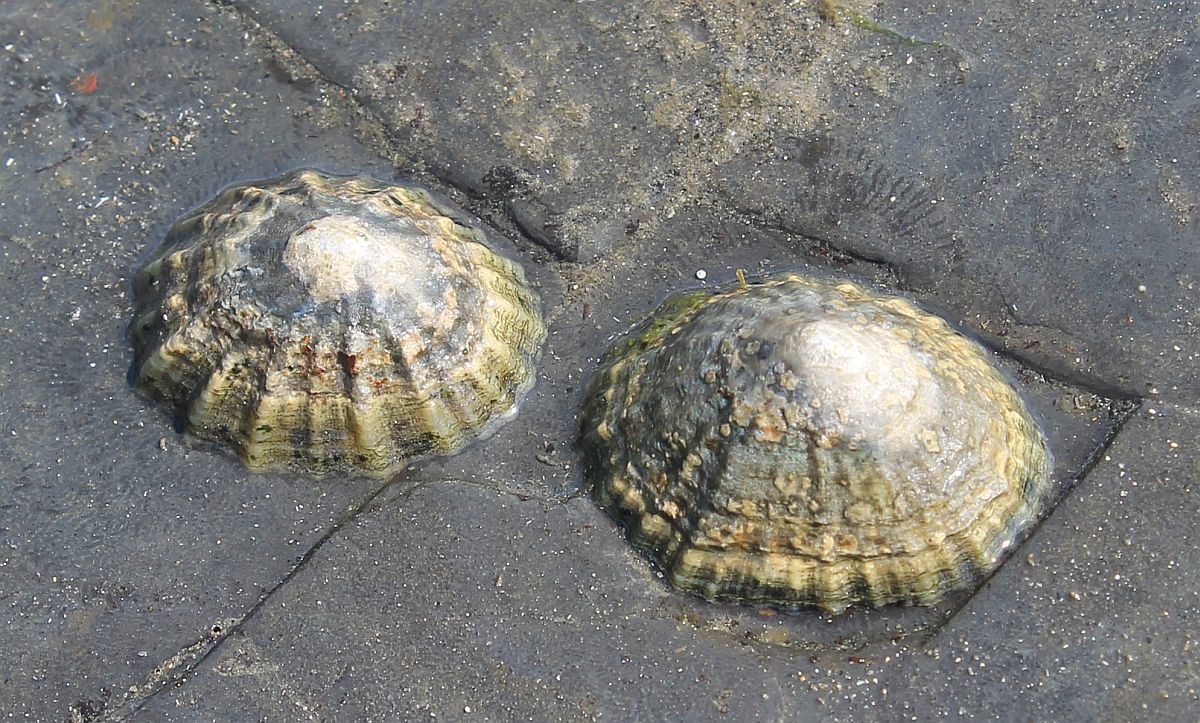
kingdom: Animalia
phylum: Mollusca
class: Gastropoda
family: Patellidae
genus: Patella
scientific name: Patella
